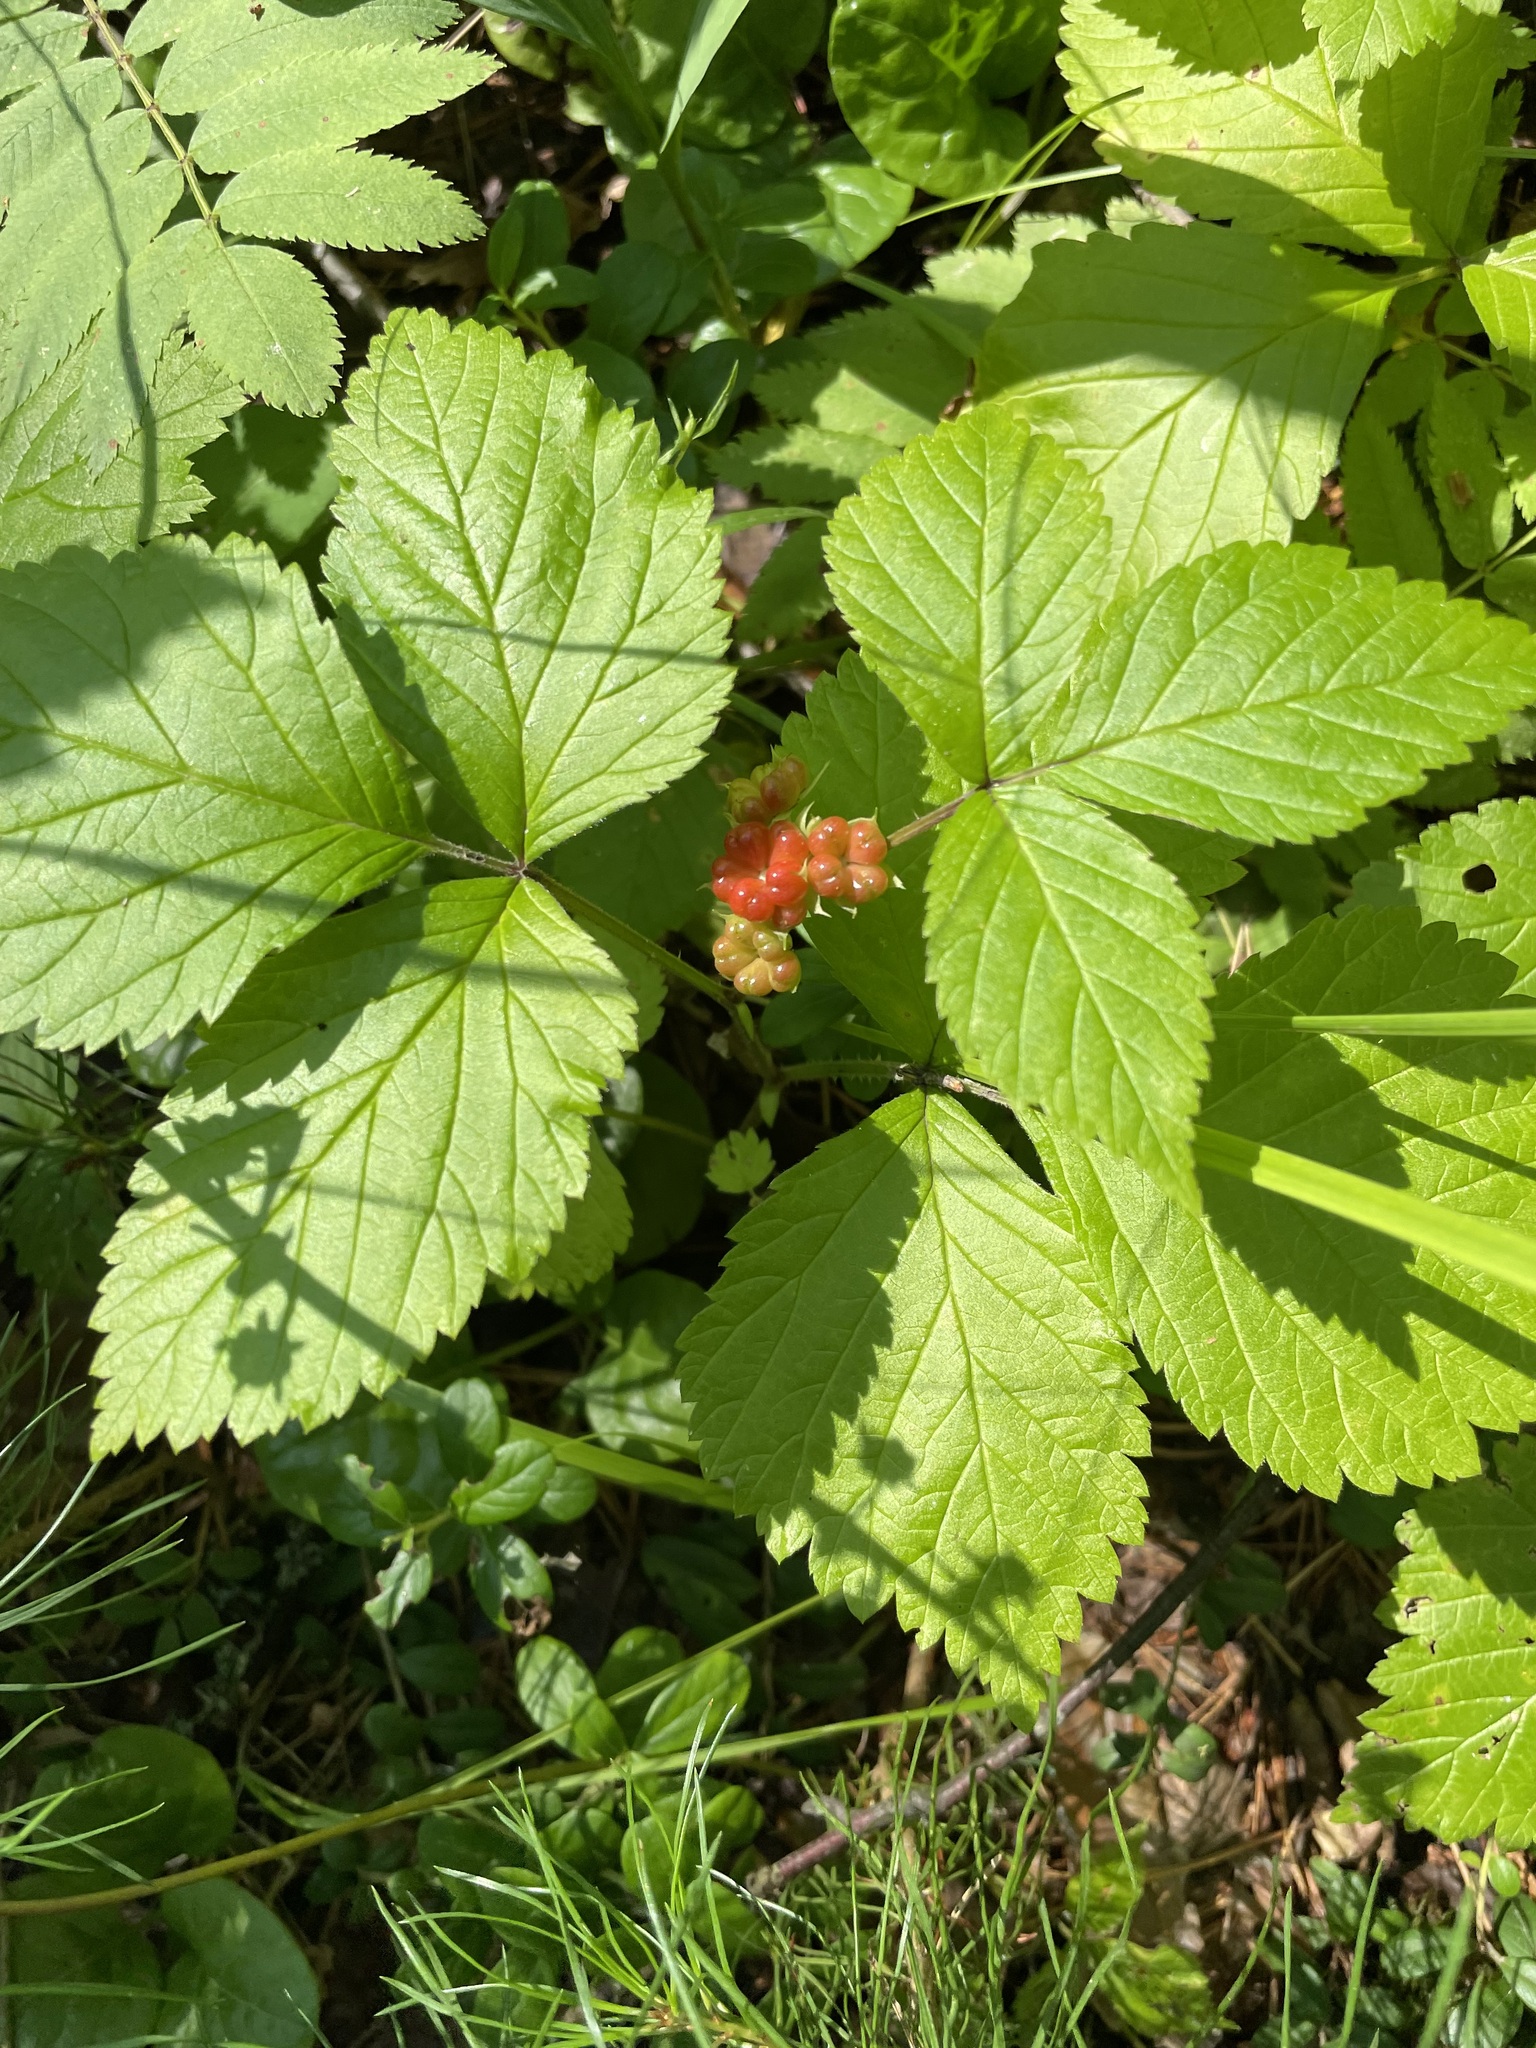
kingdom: Plantae
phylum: Tracheophyta
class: Magnoliopsida
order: Rosales
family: Rosaceae
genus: Rubus
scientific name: Rubus saxatilis
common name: Stone bramble
